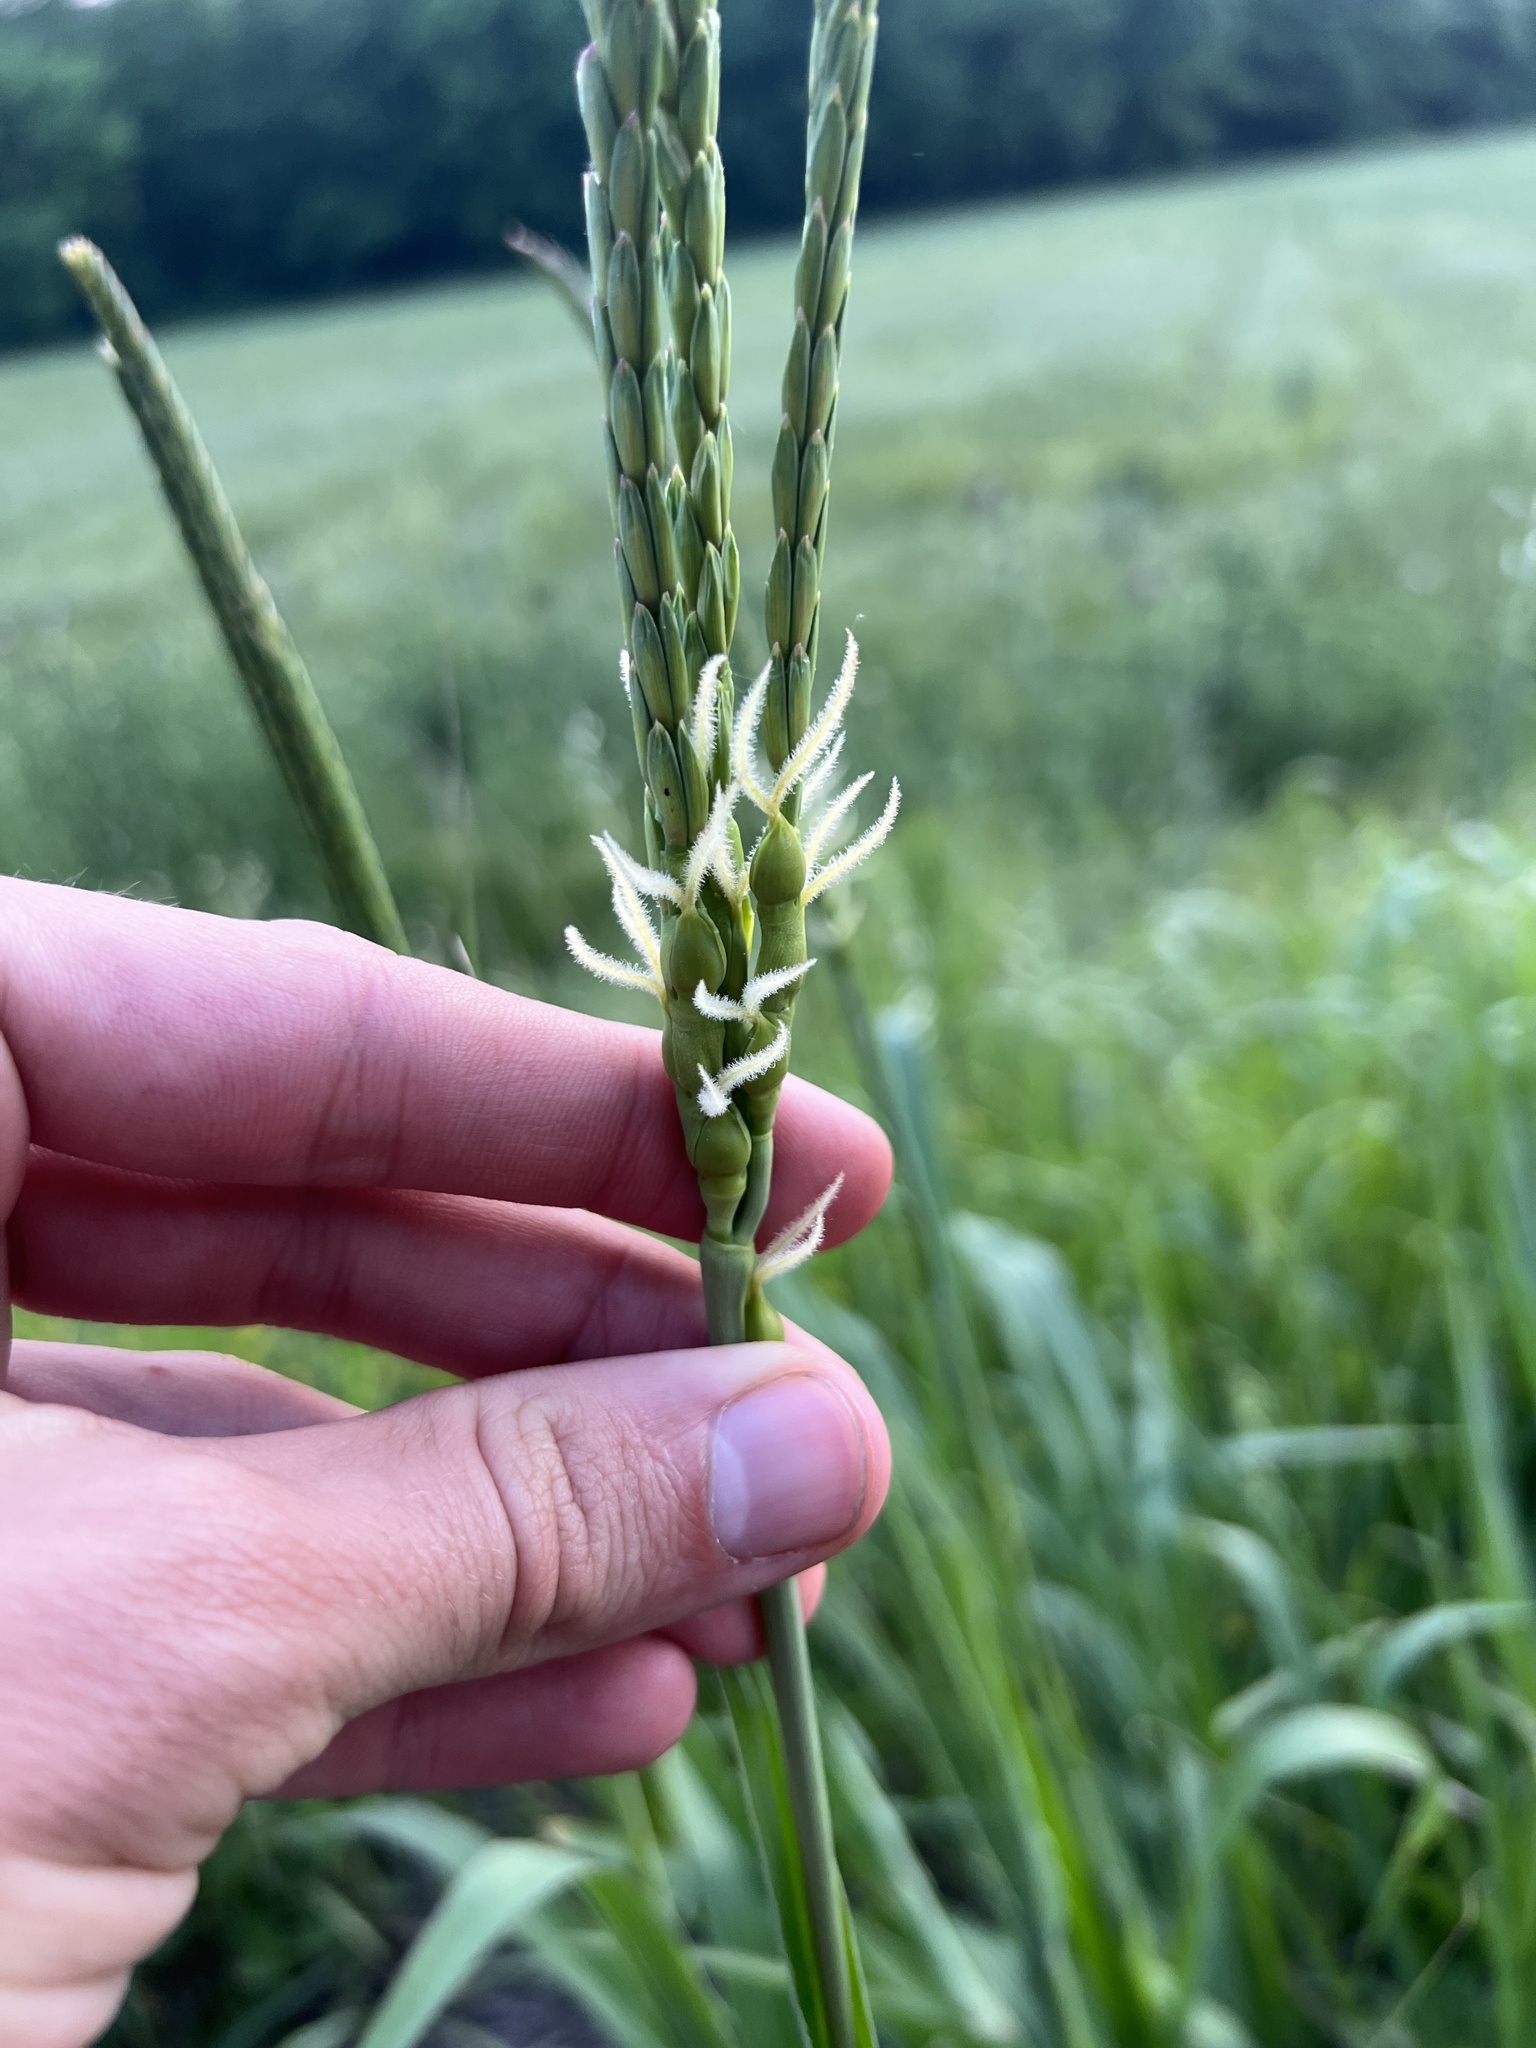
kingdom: Plantae
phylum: Tracheophyta
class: Liliopsida
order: Poales
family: Poaceae
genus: Tripsacum
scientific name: Tripsacum dactyloides
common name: Buffalo-grass
